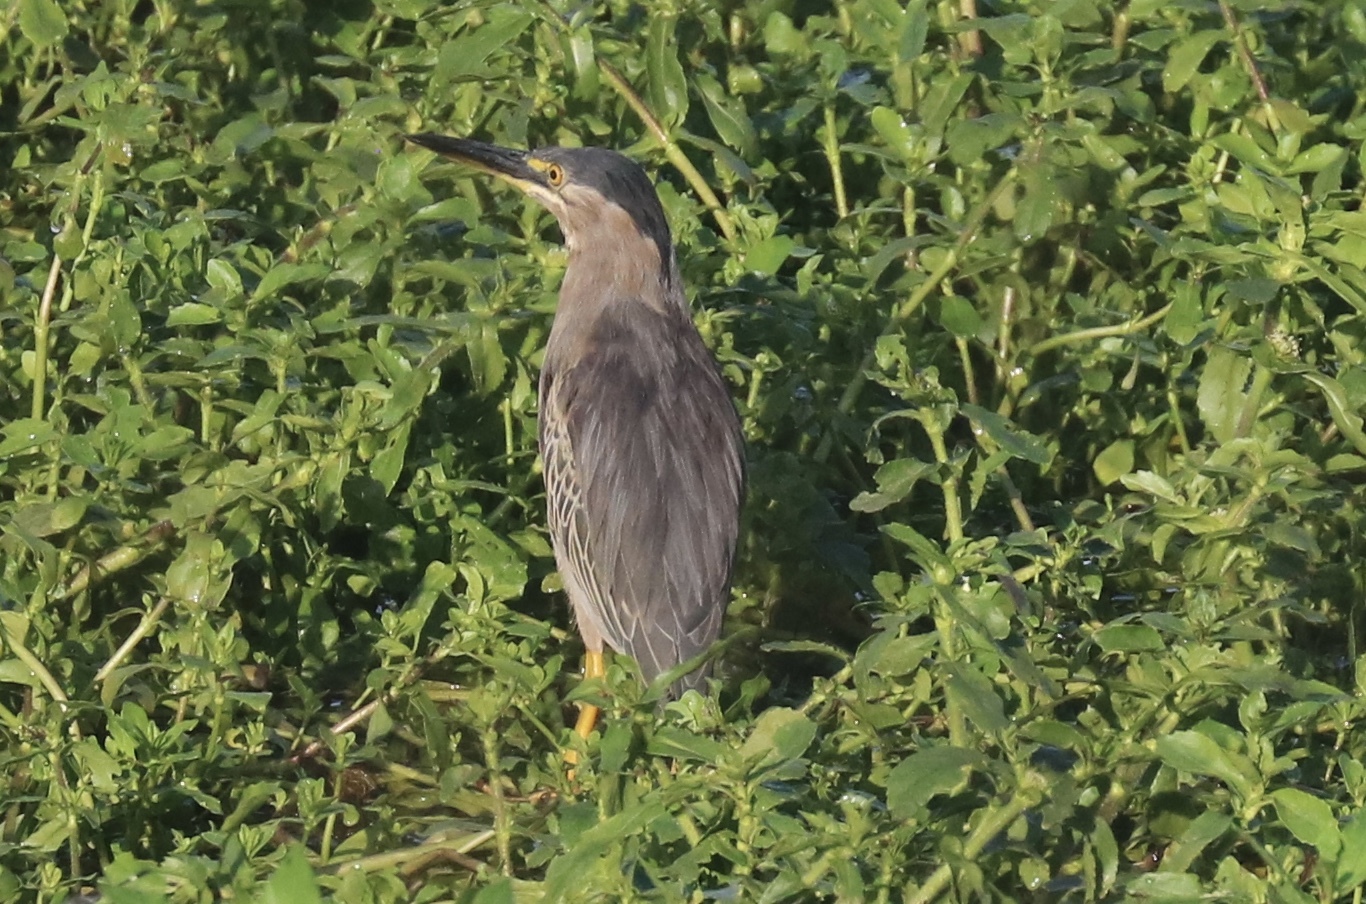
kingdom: Animalia
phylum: Chordata
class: Aves
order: Pelecaniformes
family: Ardeidae
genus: Butorides
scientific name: Butorides striata
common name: Striated heron
